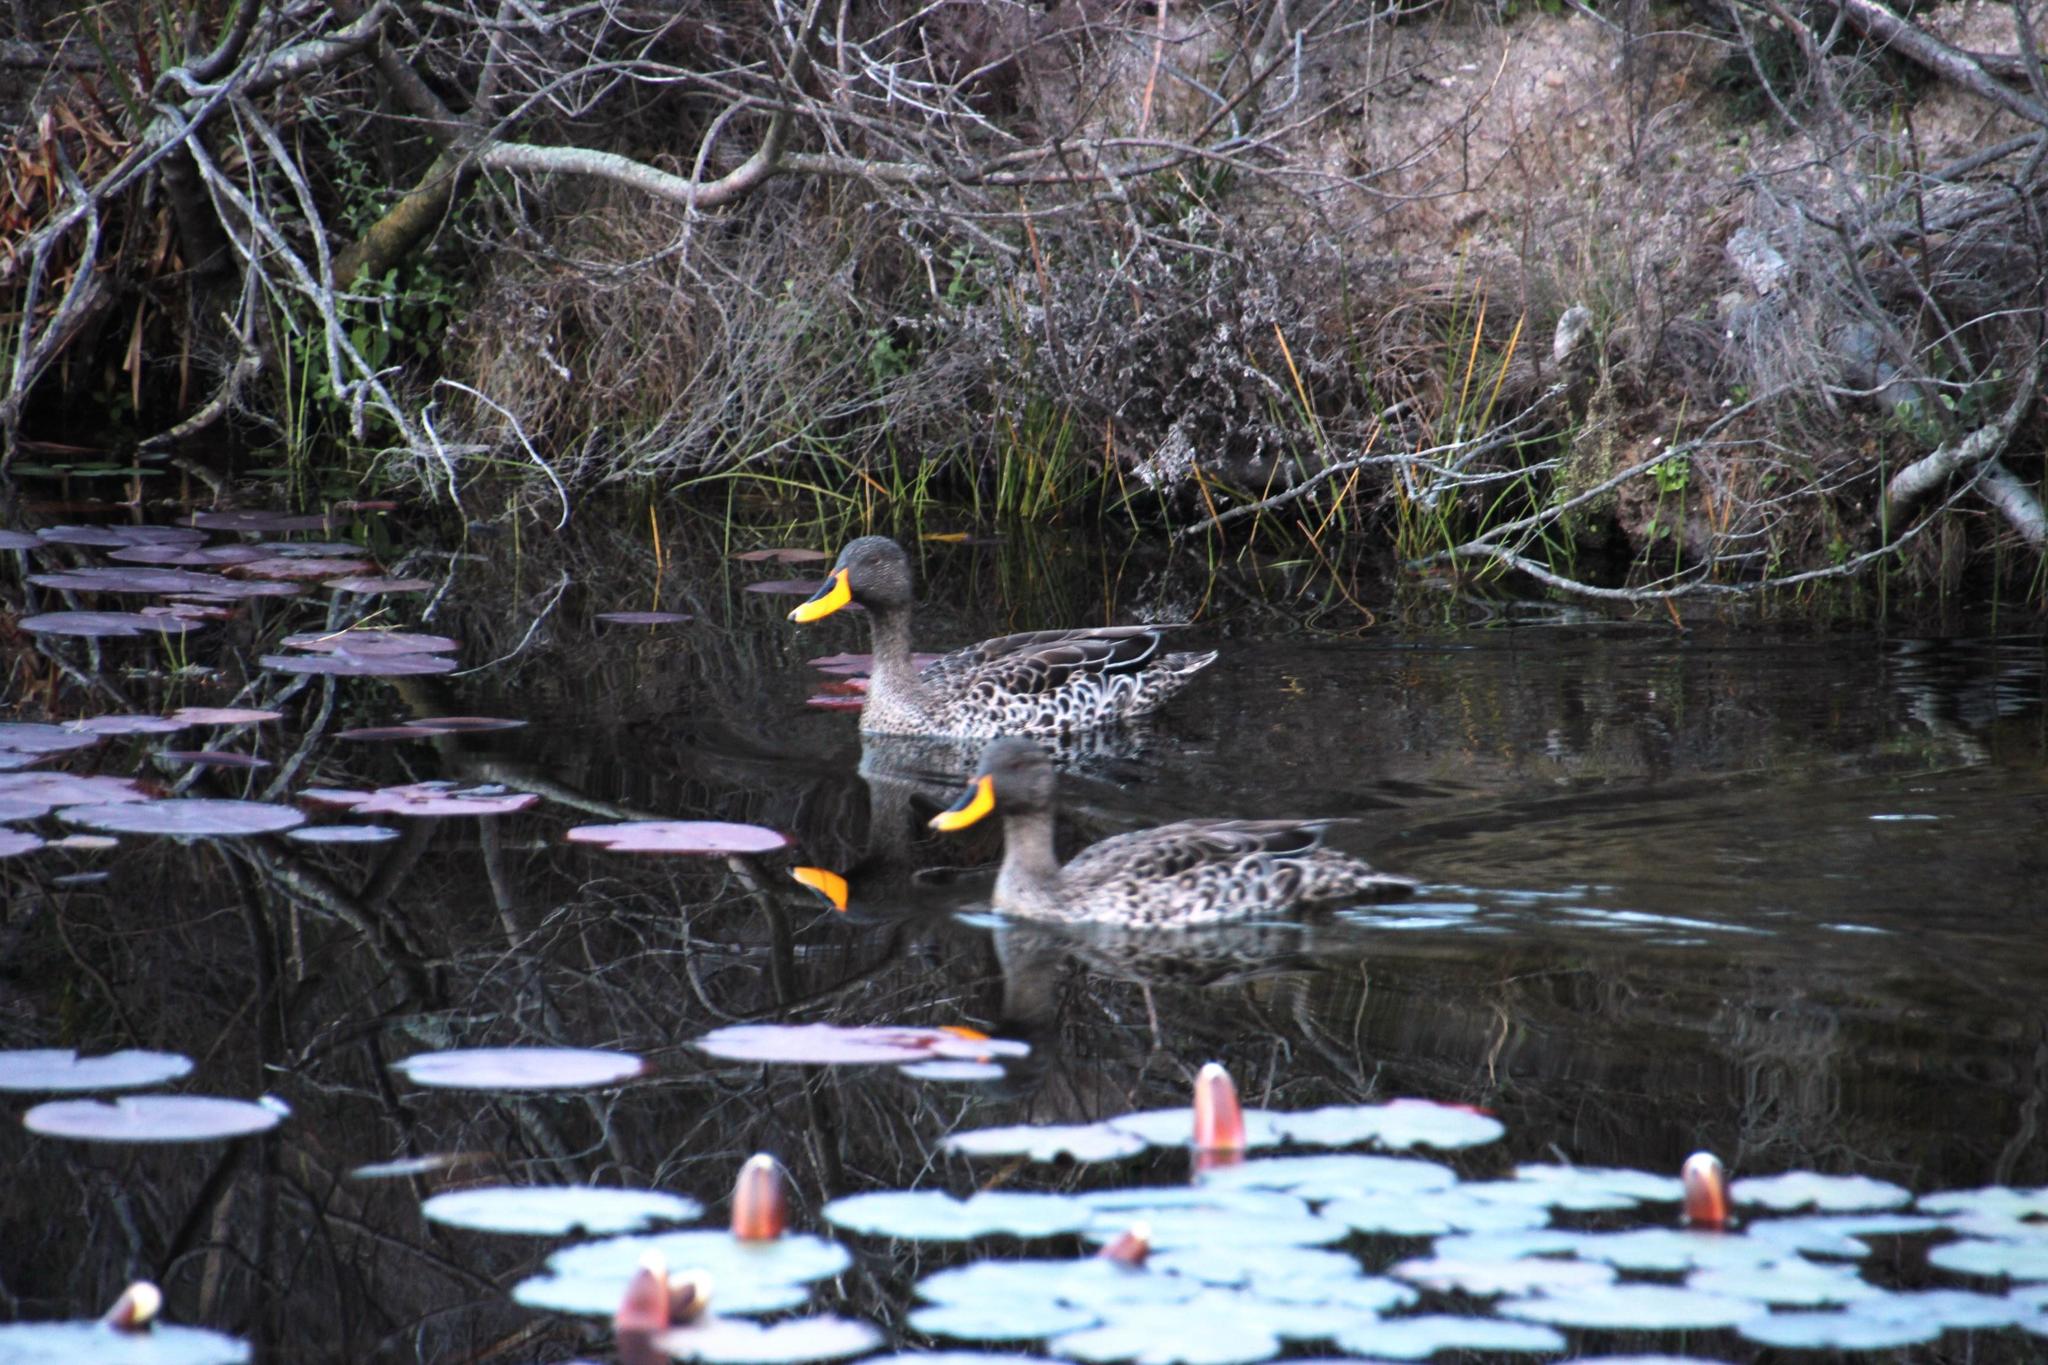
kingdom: Animalia
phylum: Chordata
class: Aves
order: Anseriformes
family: Anatidae
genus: Anas
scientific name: Anas undulata
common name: Yellow-billed duck
